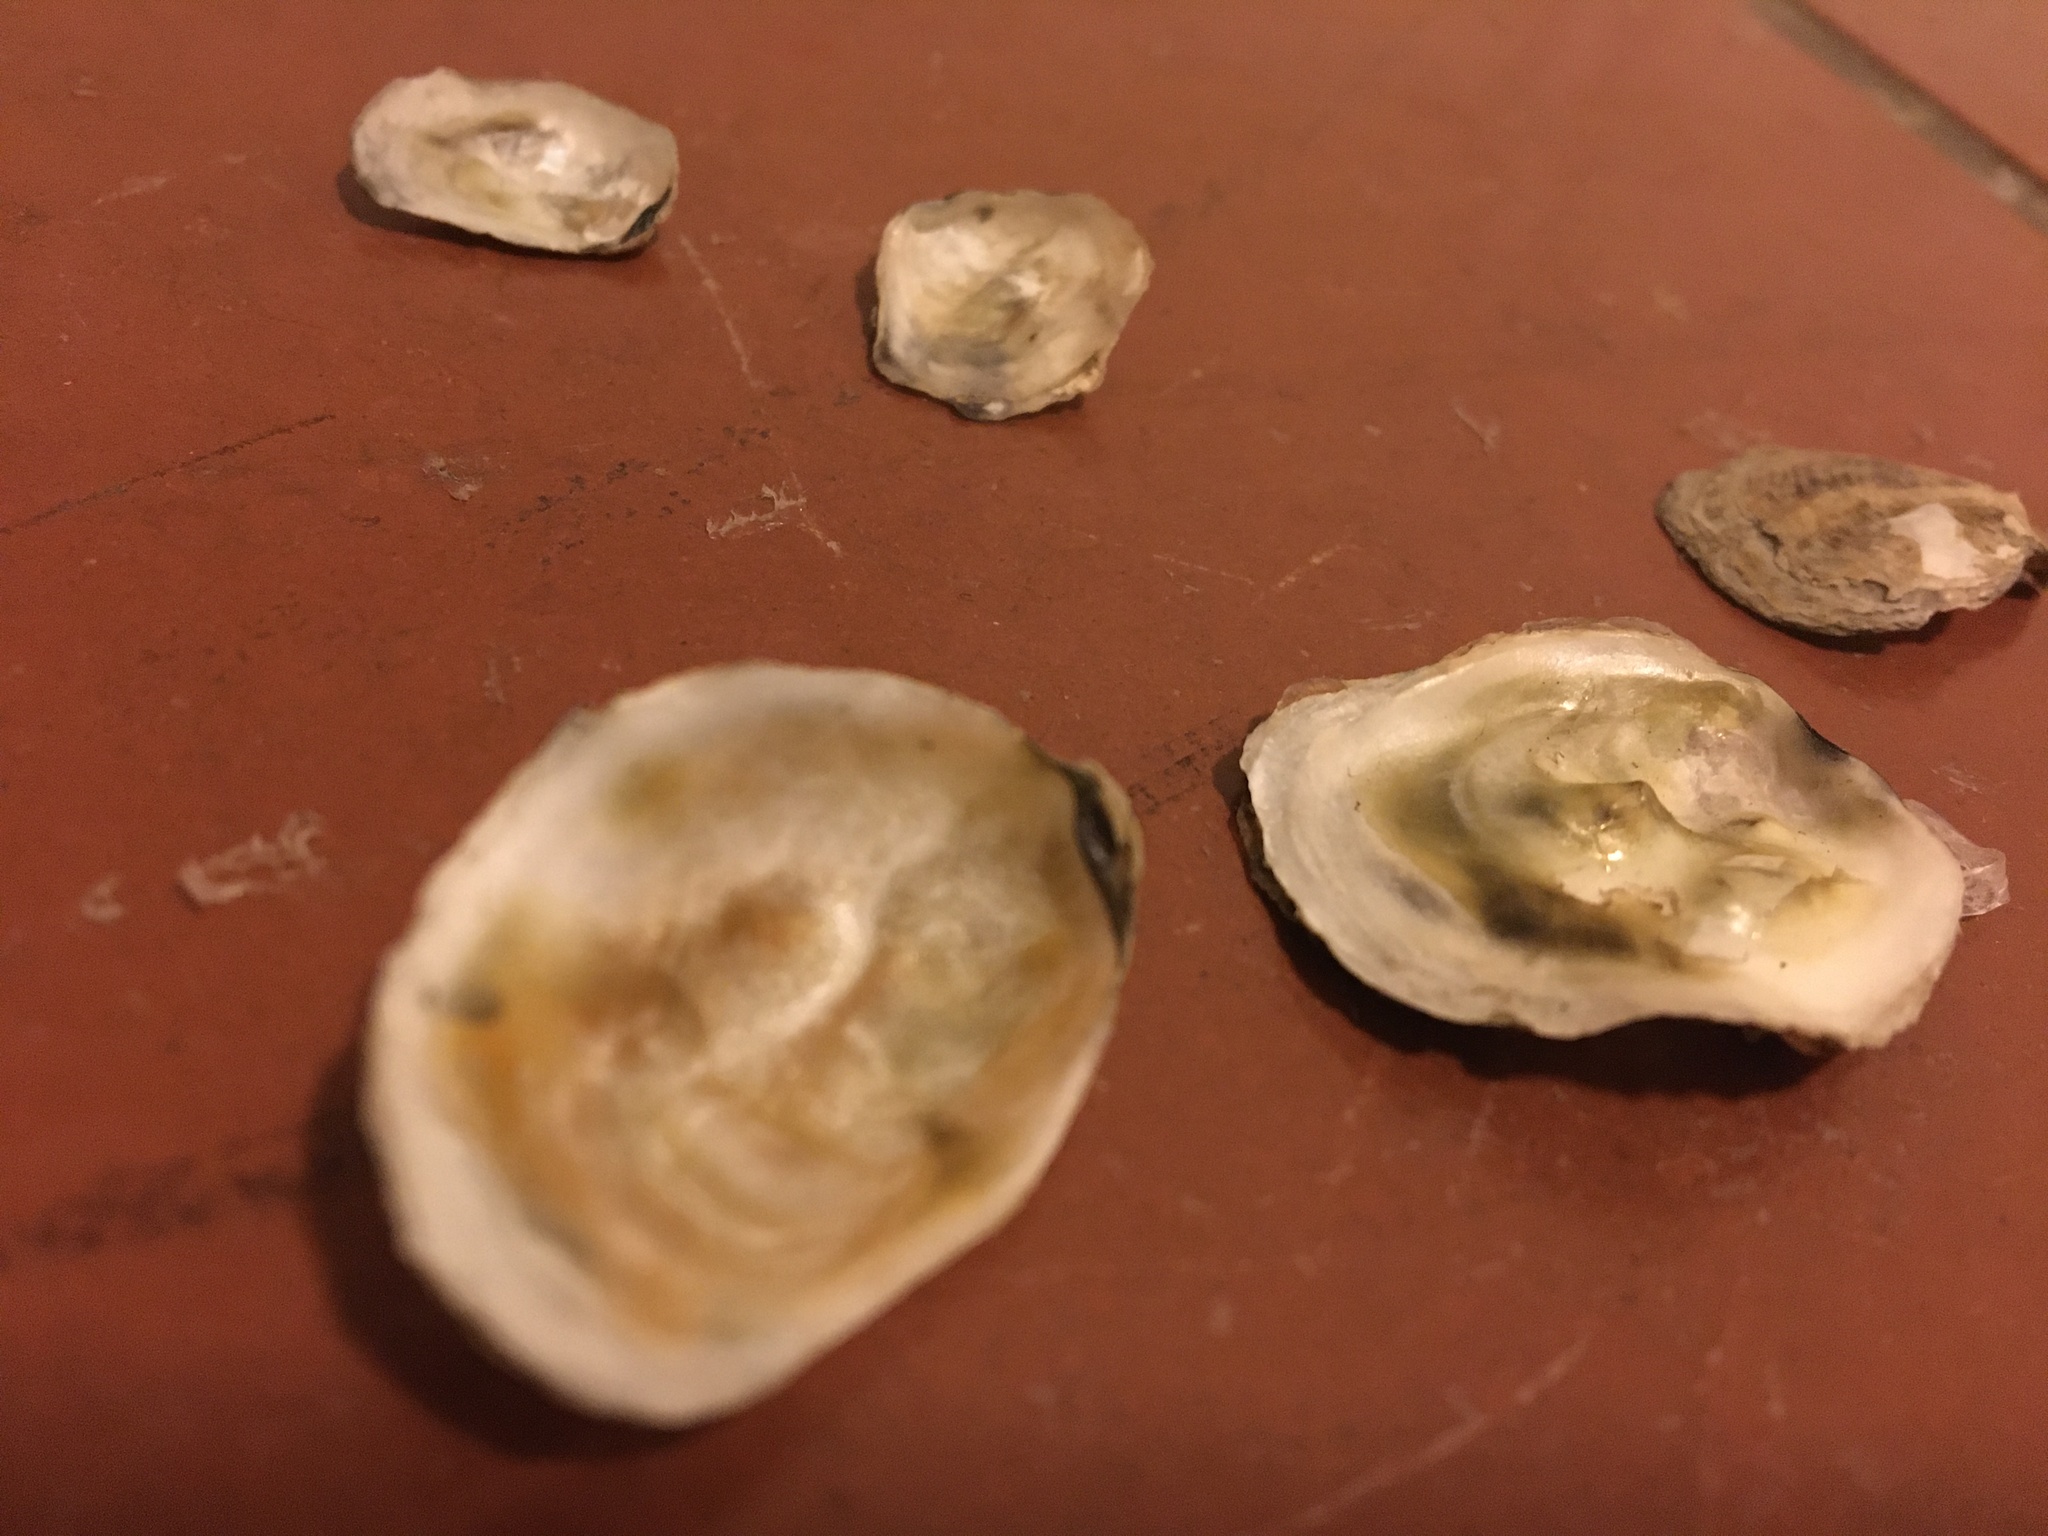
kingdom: Animalia
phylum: Mollusca
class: Bivalvia
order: Ostreida
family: Ostreidae
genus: Ostrea
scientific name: Ostrea lurida
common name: Olympia flat oyster
